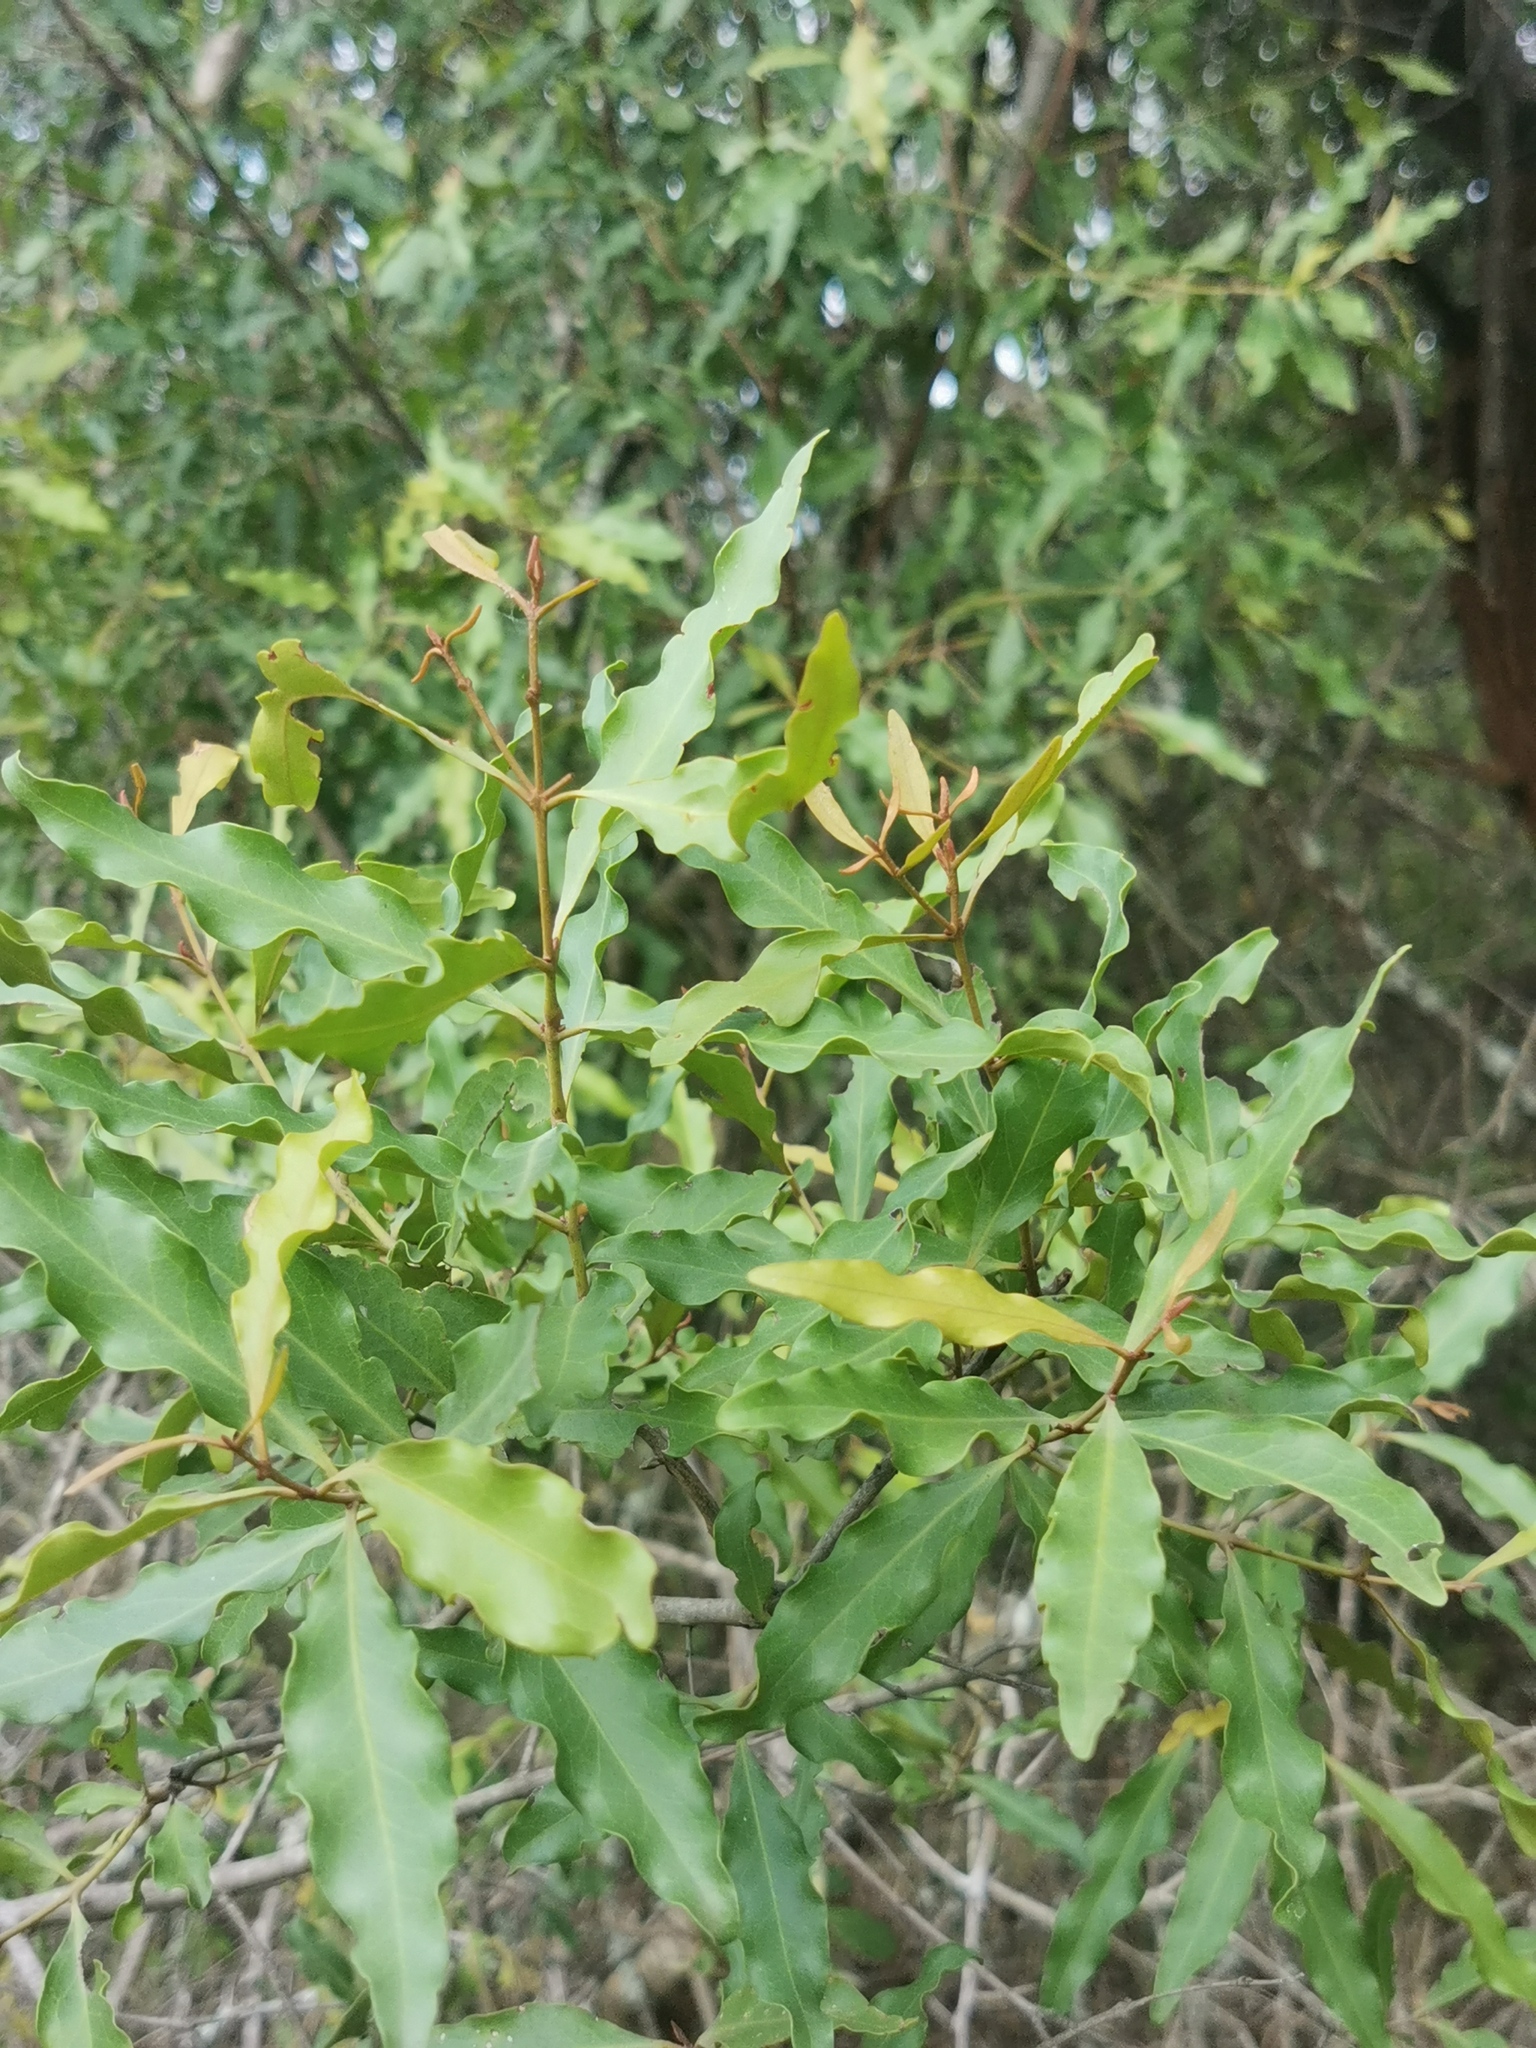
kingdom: Plantae
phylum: Tracheophyta
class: Magnoliopsida
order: Ericales
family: Ebenaceae
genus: Euclea
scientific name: Euclea divinorum
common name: Diamond-leaved euclea
